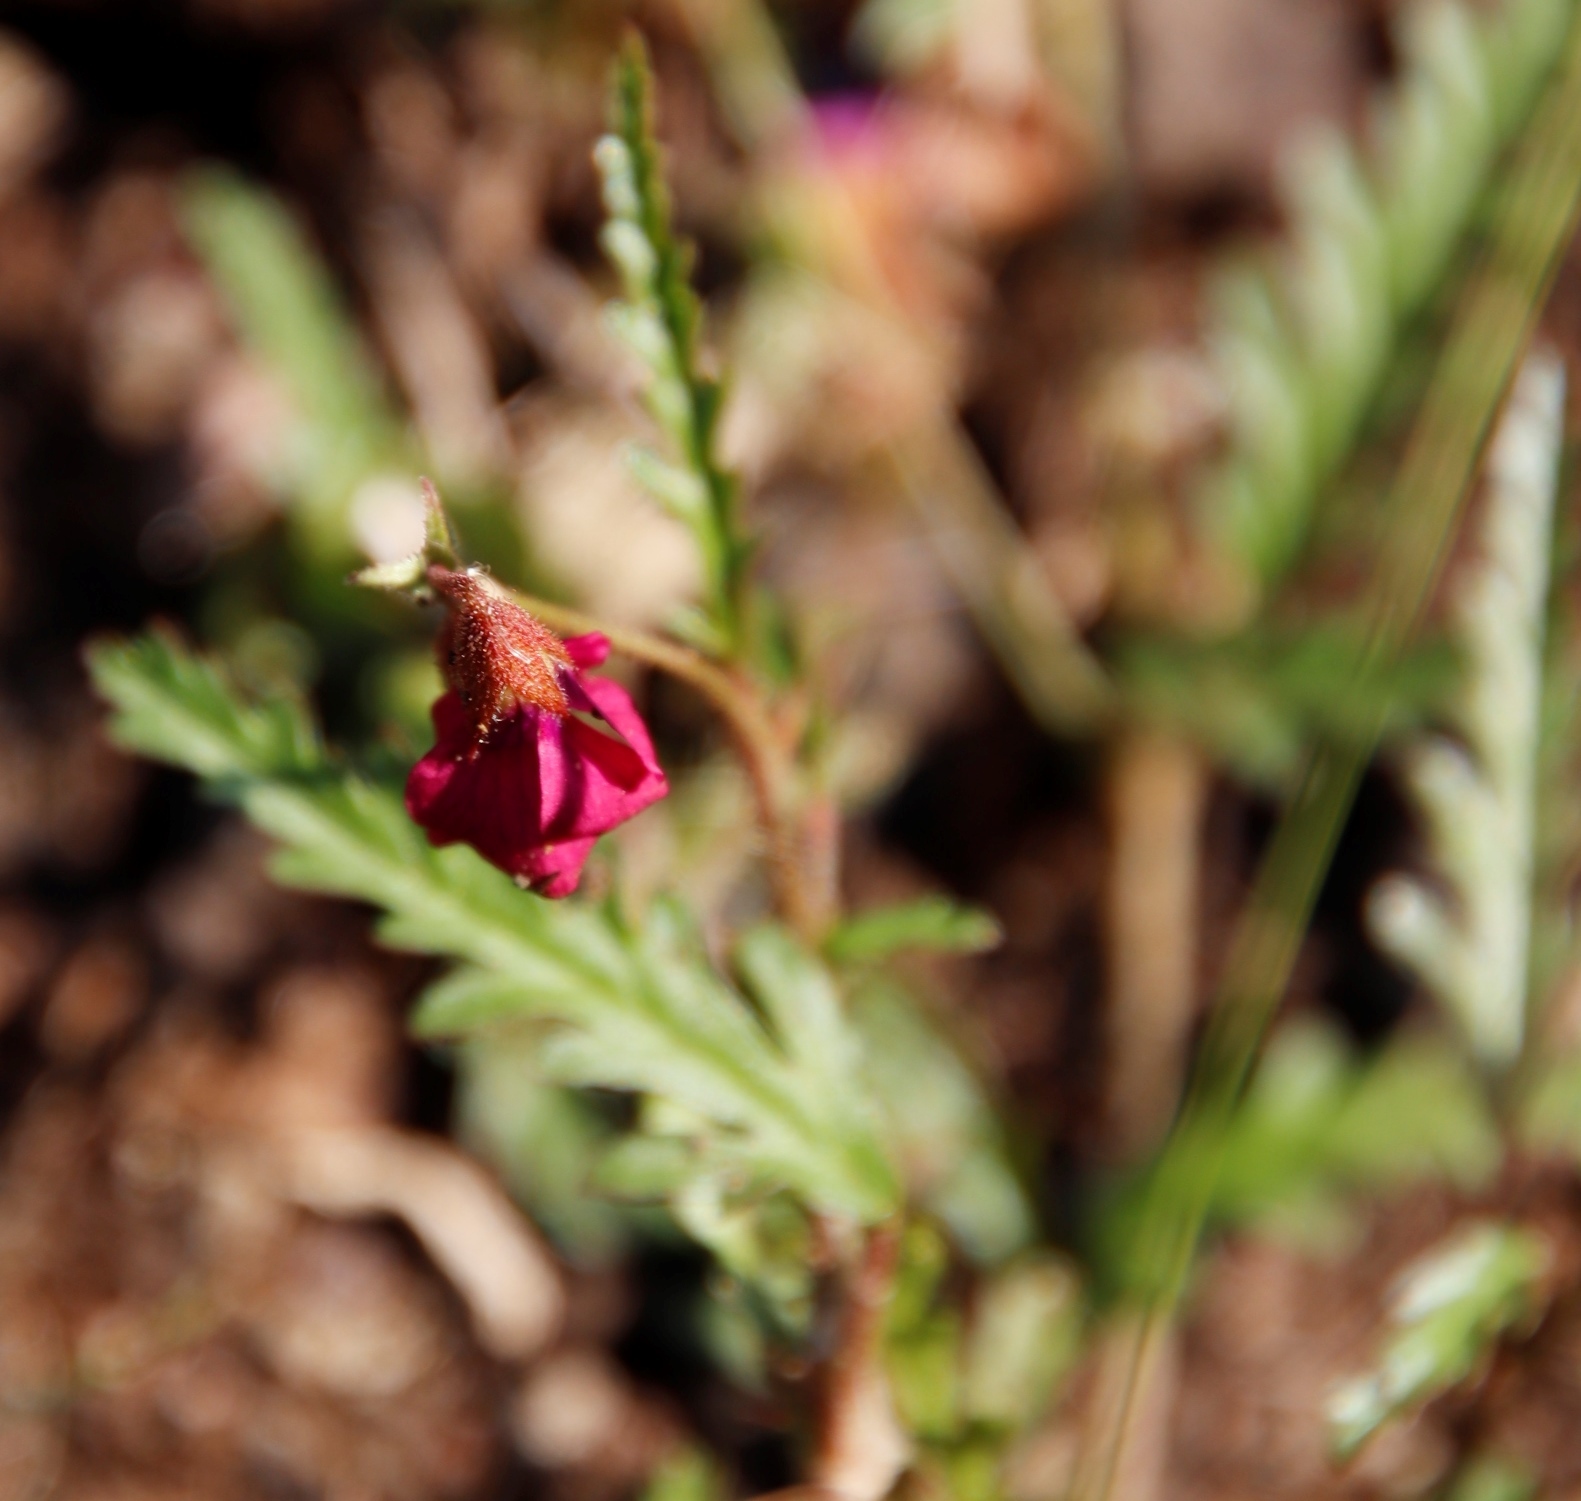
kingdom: Plantae
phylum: Tracheophyta
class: Magnoliopsida
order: Malvales
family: Malvaceae
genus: Hermannia
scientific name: Hermannia coccocarpa
